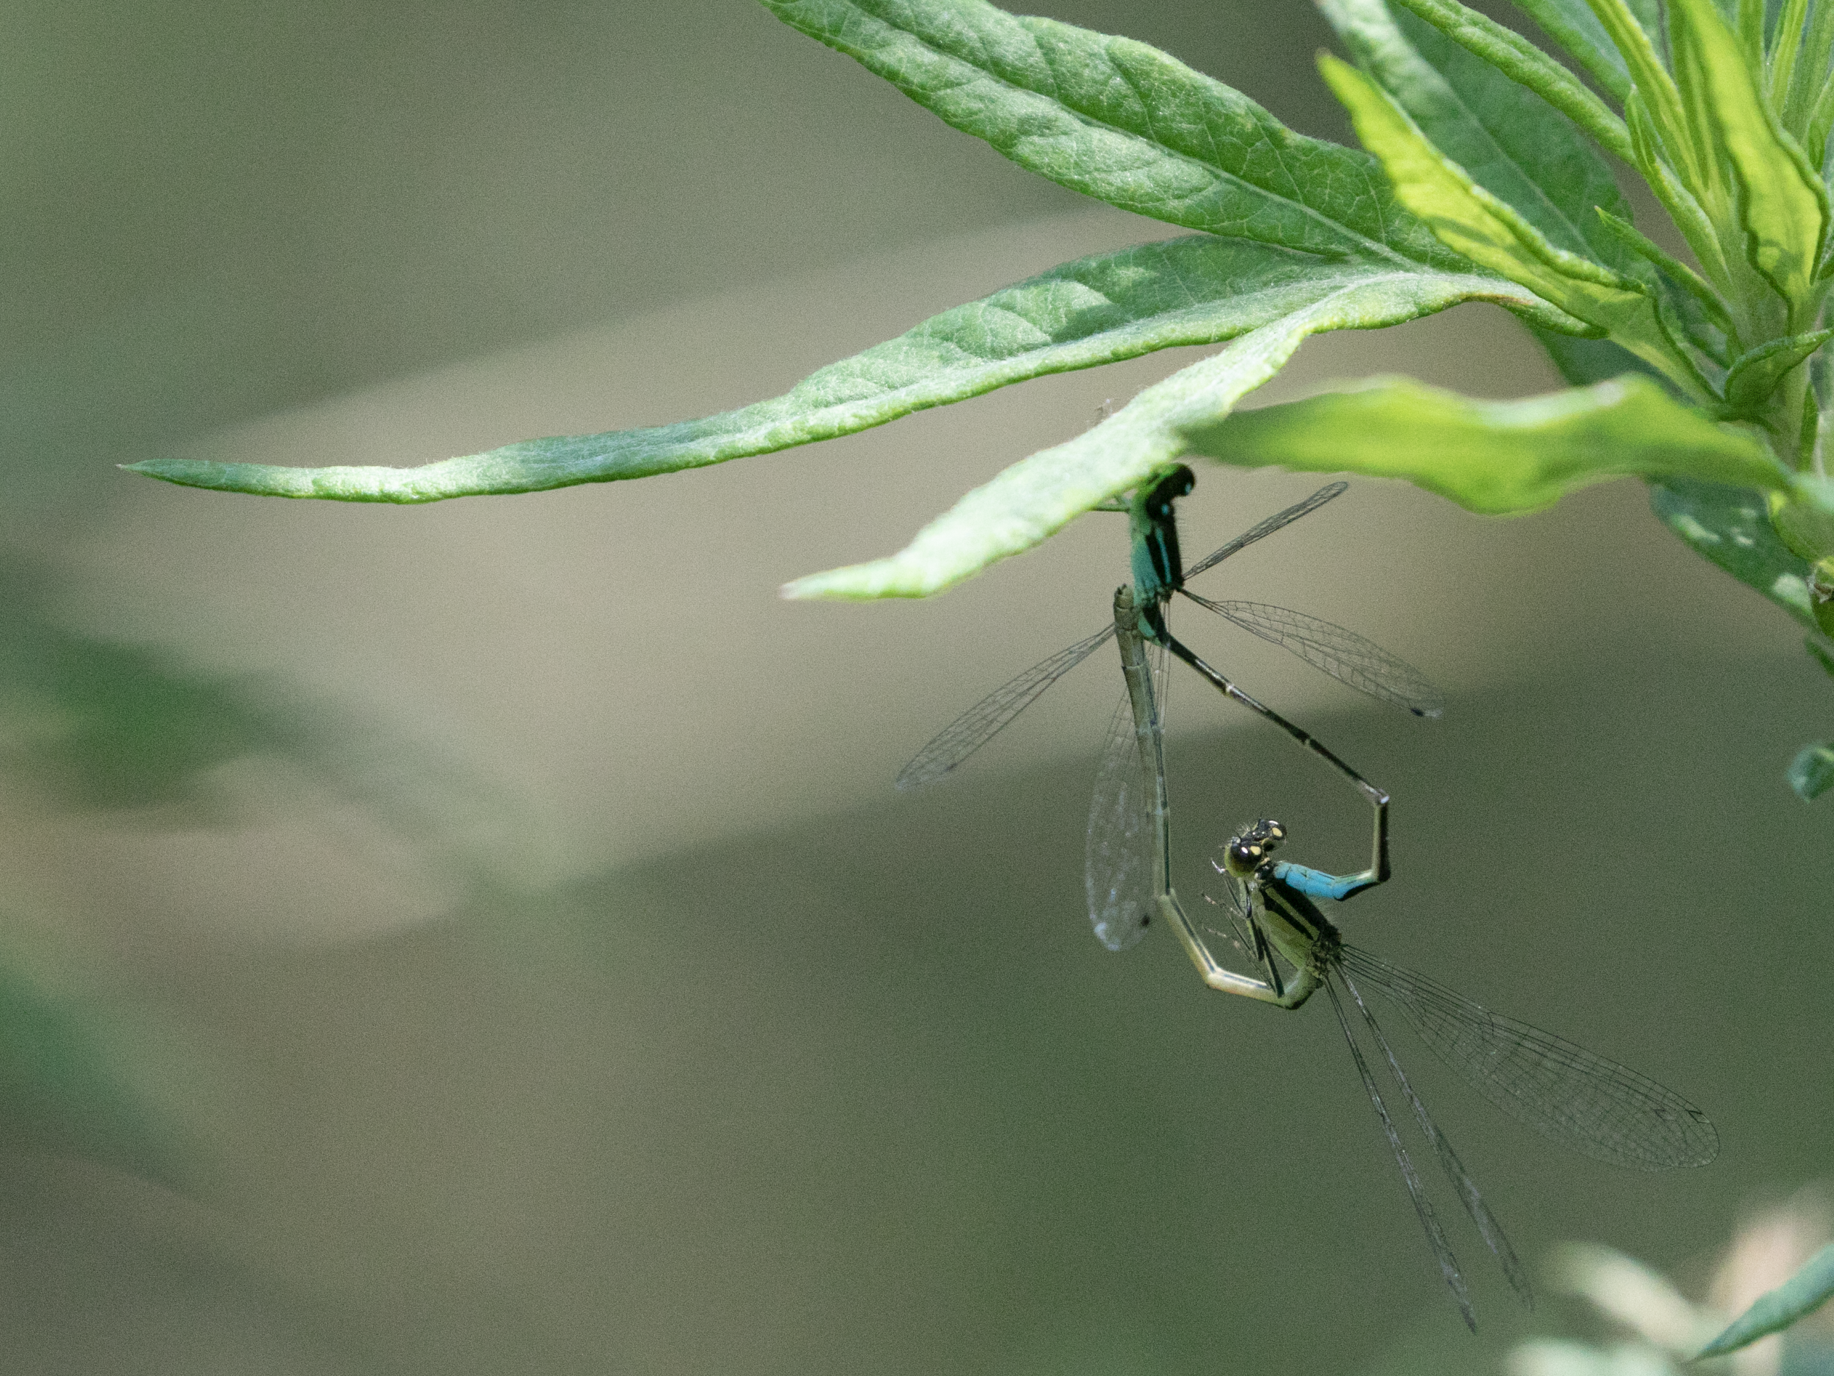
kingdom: Animalia
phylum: Arthropoda
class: Insecta
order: Odonata
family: Coenagrionidae
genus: Ischnura
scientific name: Ischnura elegans
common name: Blue-tailed damselfly
